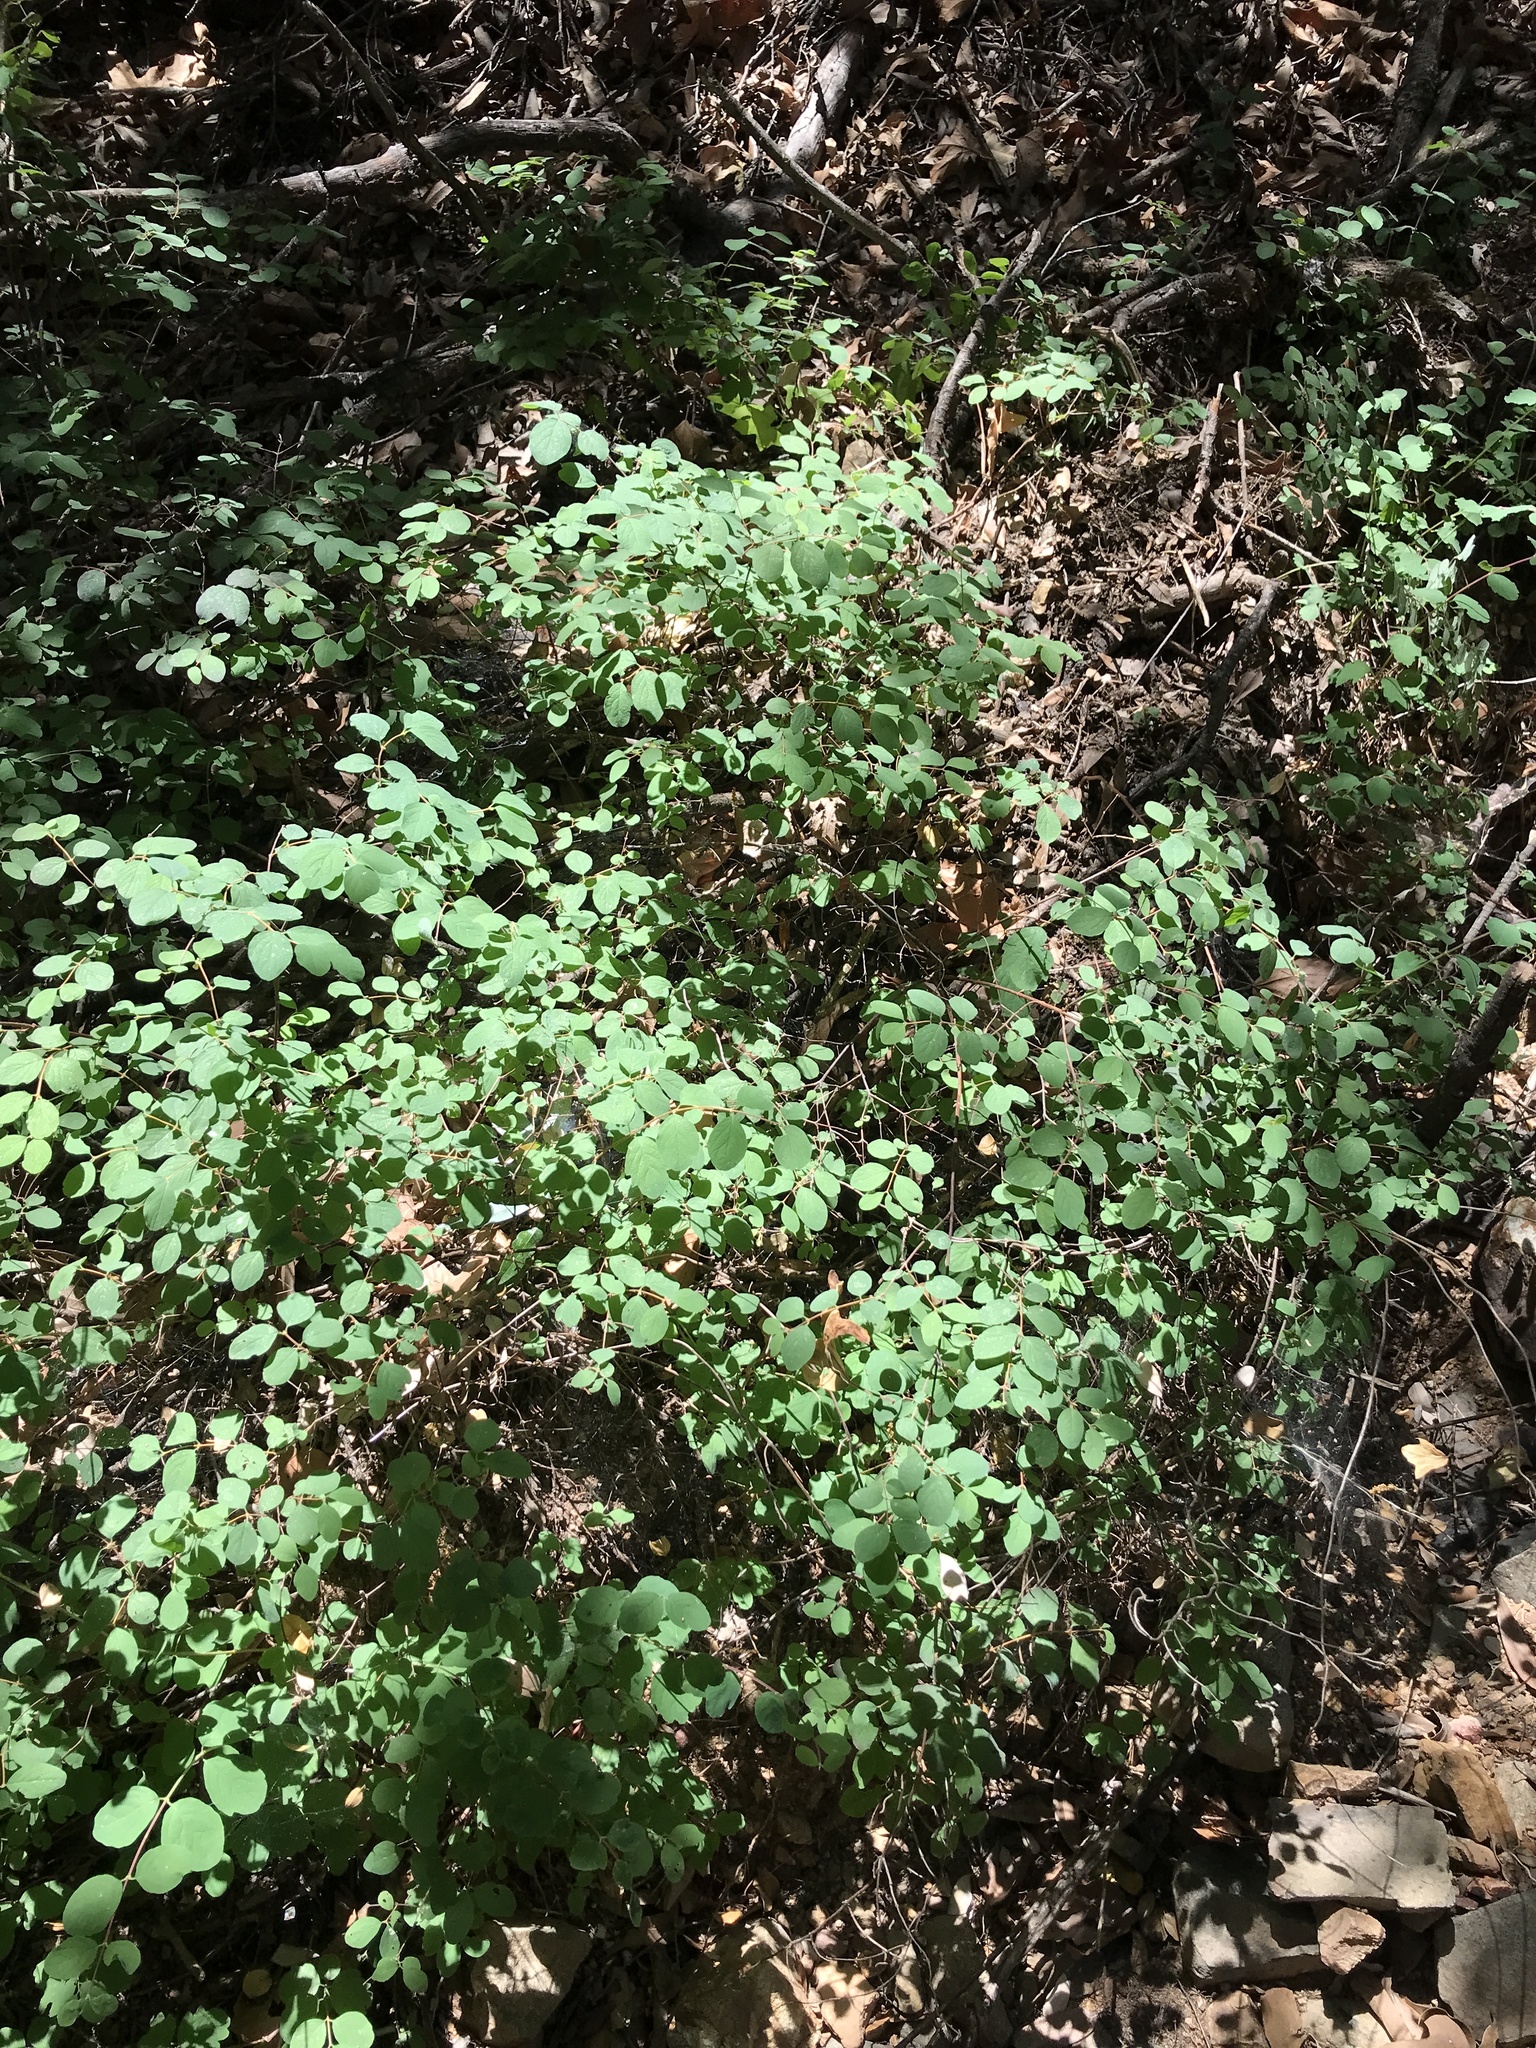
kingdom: Plantae
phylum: Tracheophyta
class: Magnoliopsida
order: Dipsacales
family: Caprifoliaceae
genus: Symphoricarpos
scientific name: Symphoricarpos mollis
